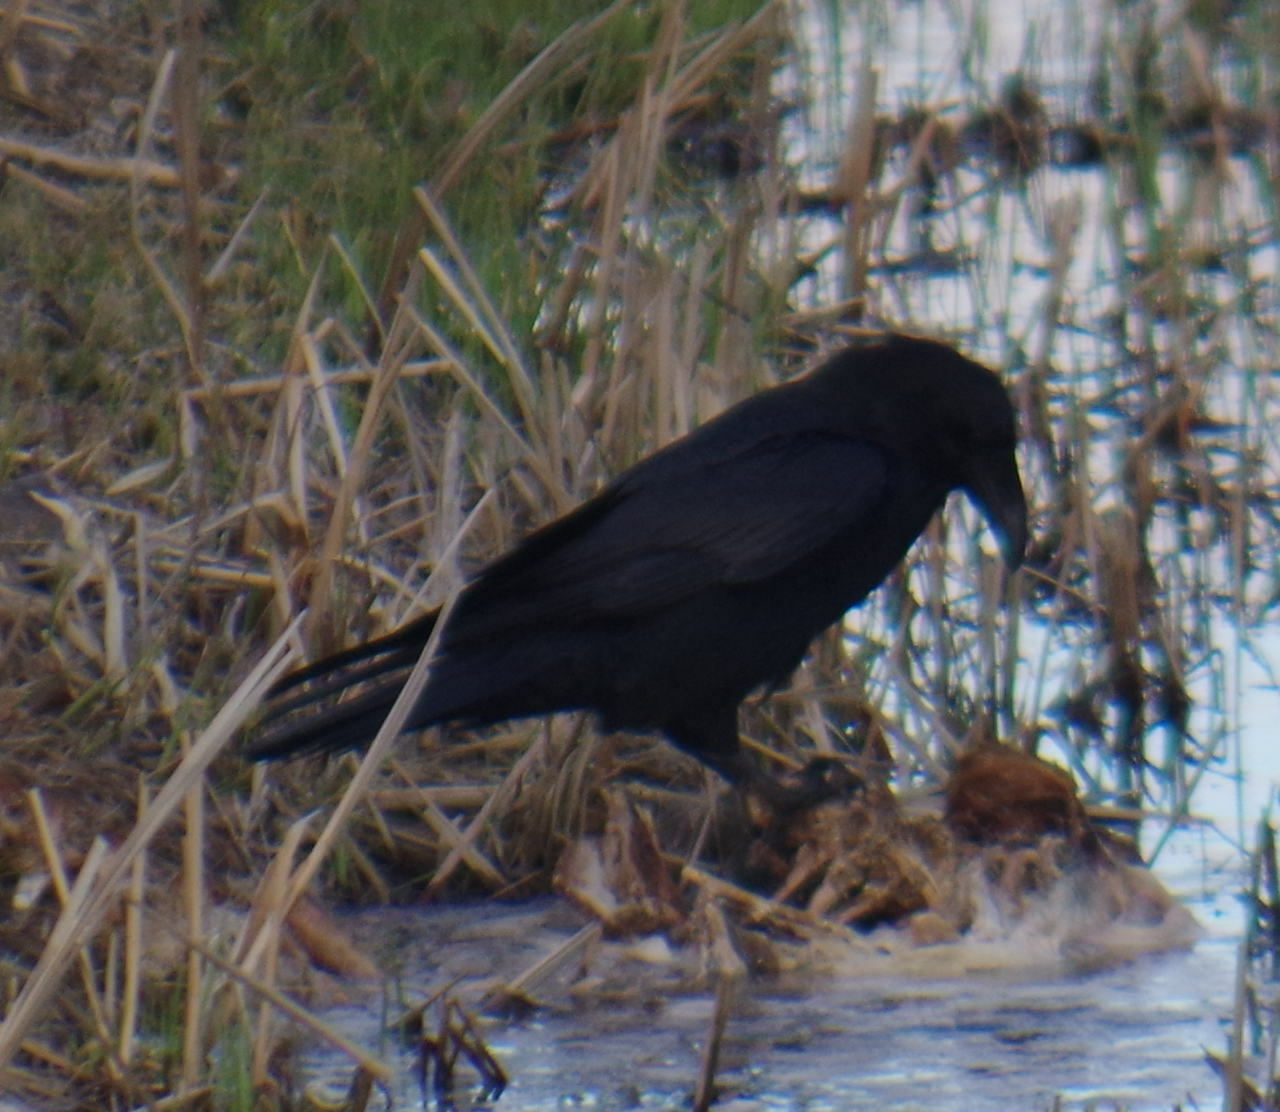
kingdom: Animalia
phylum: Chordata
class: Aves
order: Passeriformes
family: Corvidae
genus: Corvus
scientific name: Corvus corax
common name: Common raven
